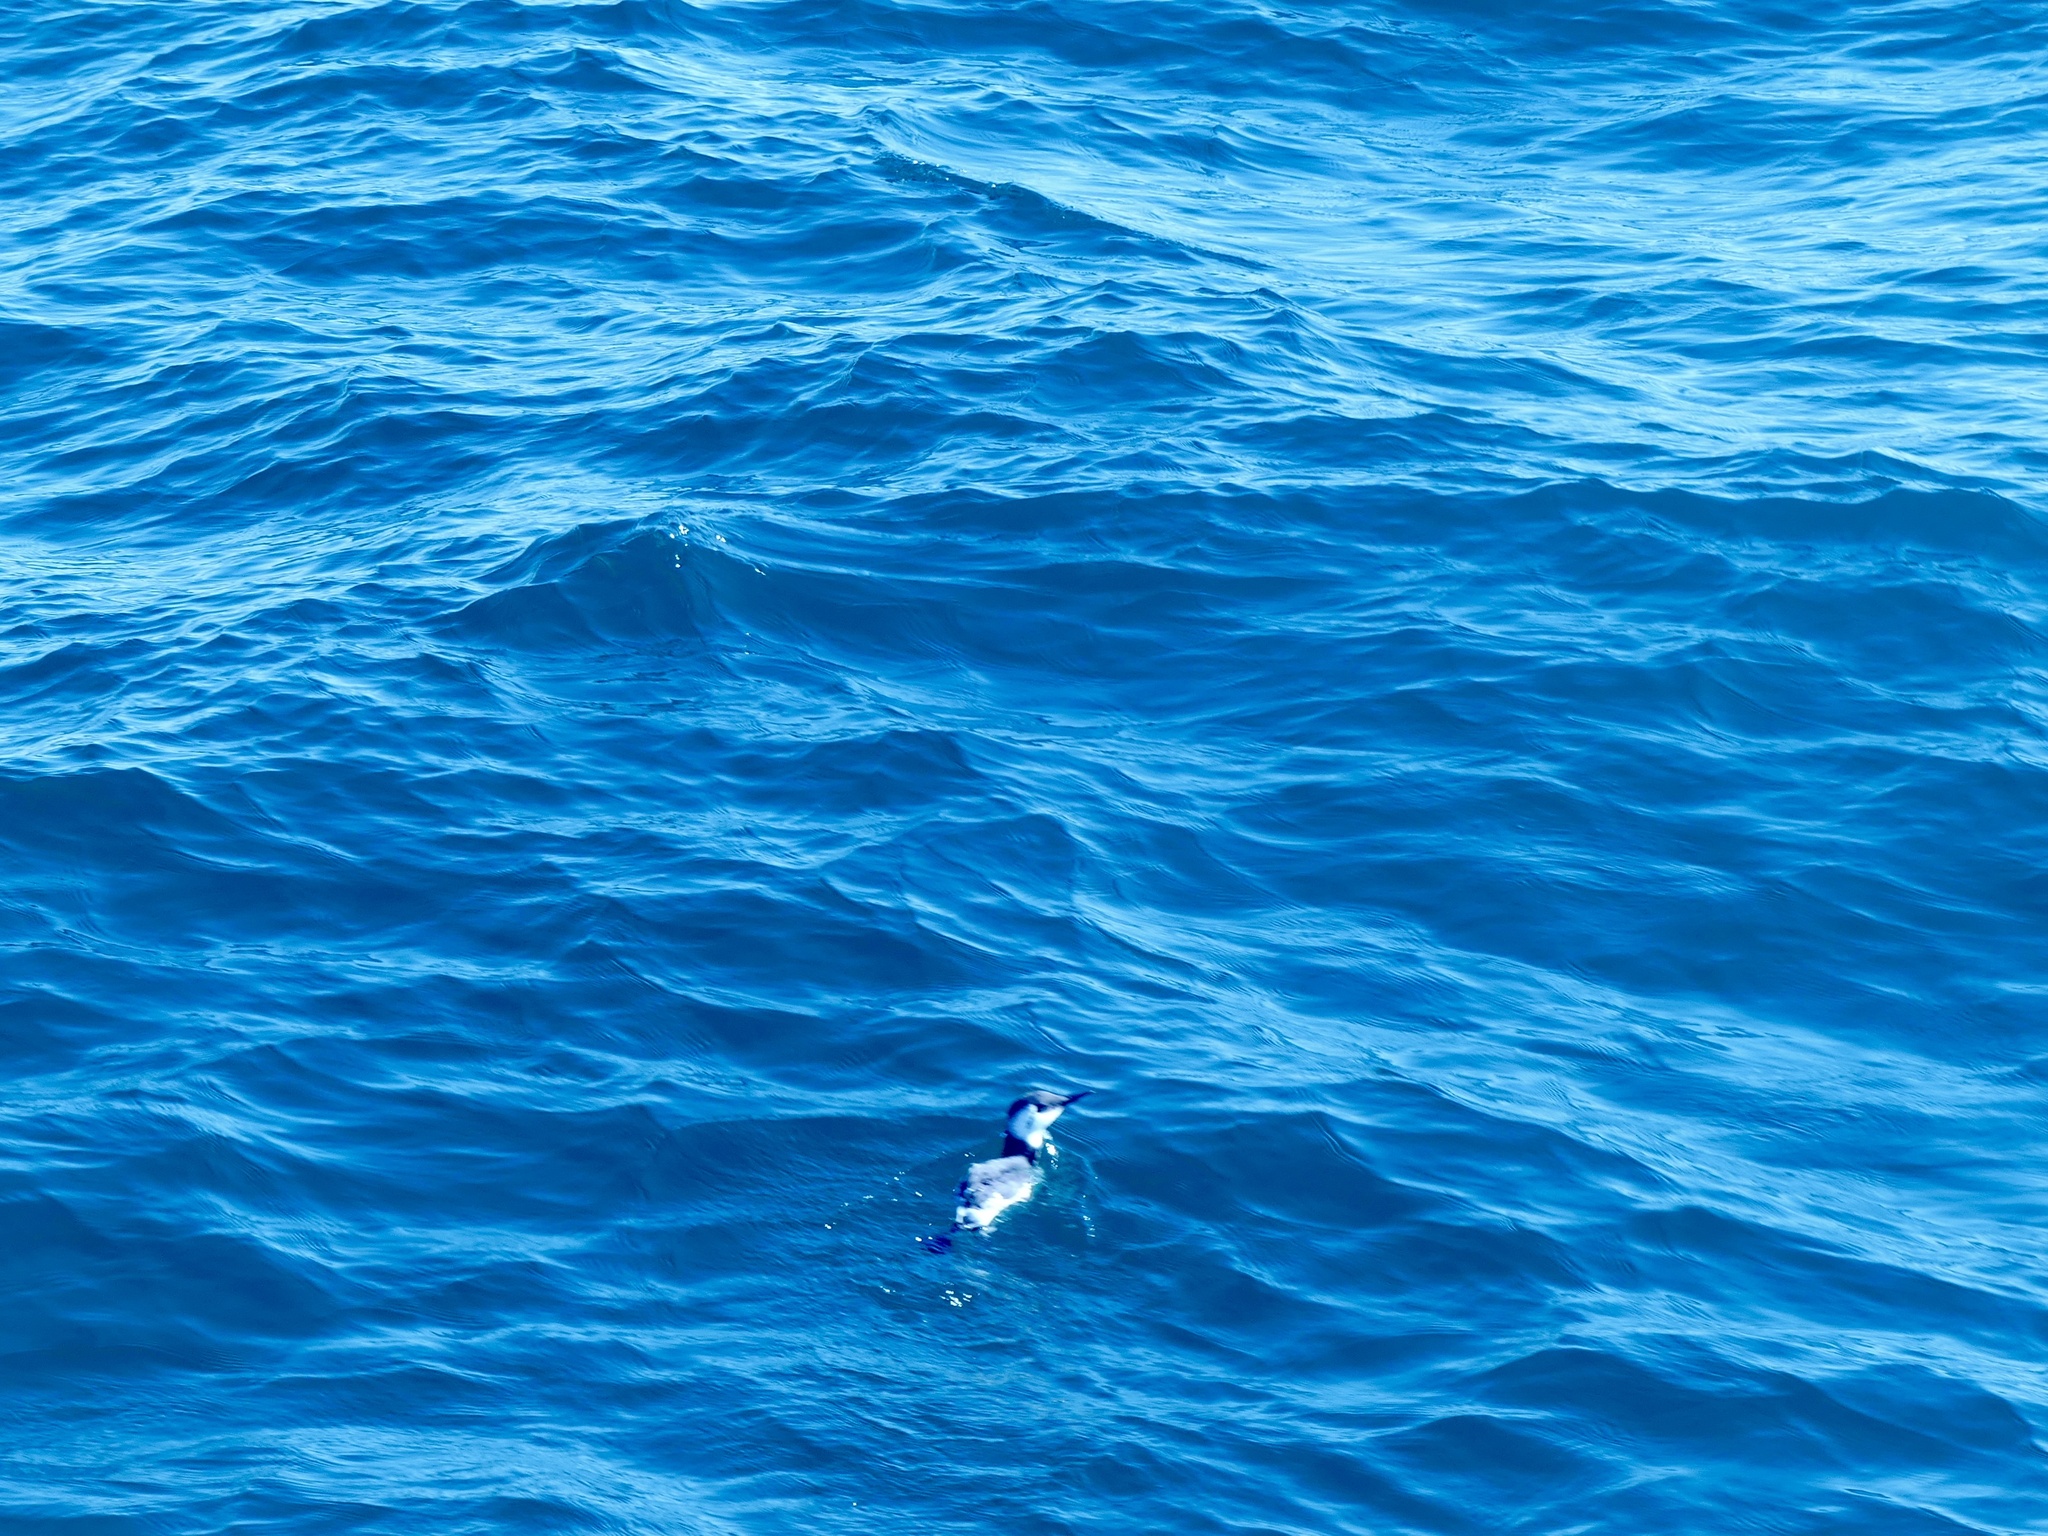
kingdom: Animalia
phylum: Chordata
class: Aves
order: Charadriiformes
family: Alcidae
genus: Uria
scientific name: Uria aalge
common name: Common murre
